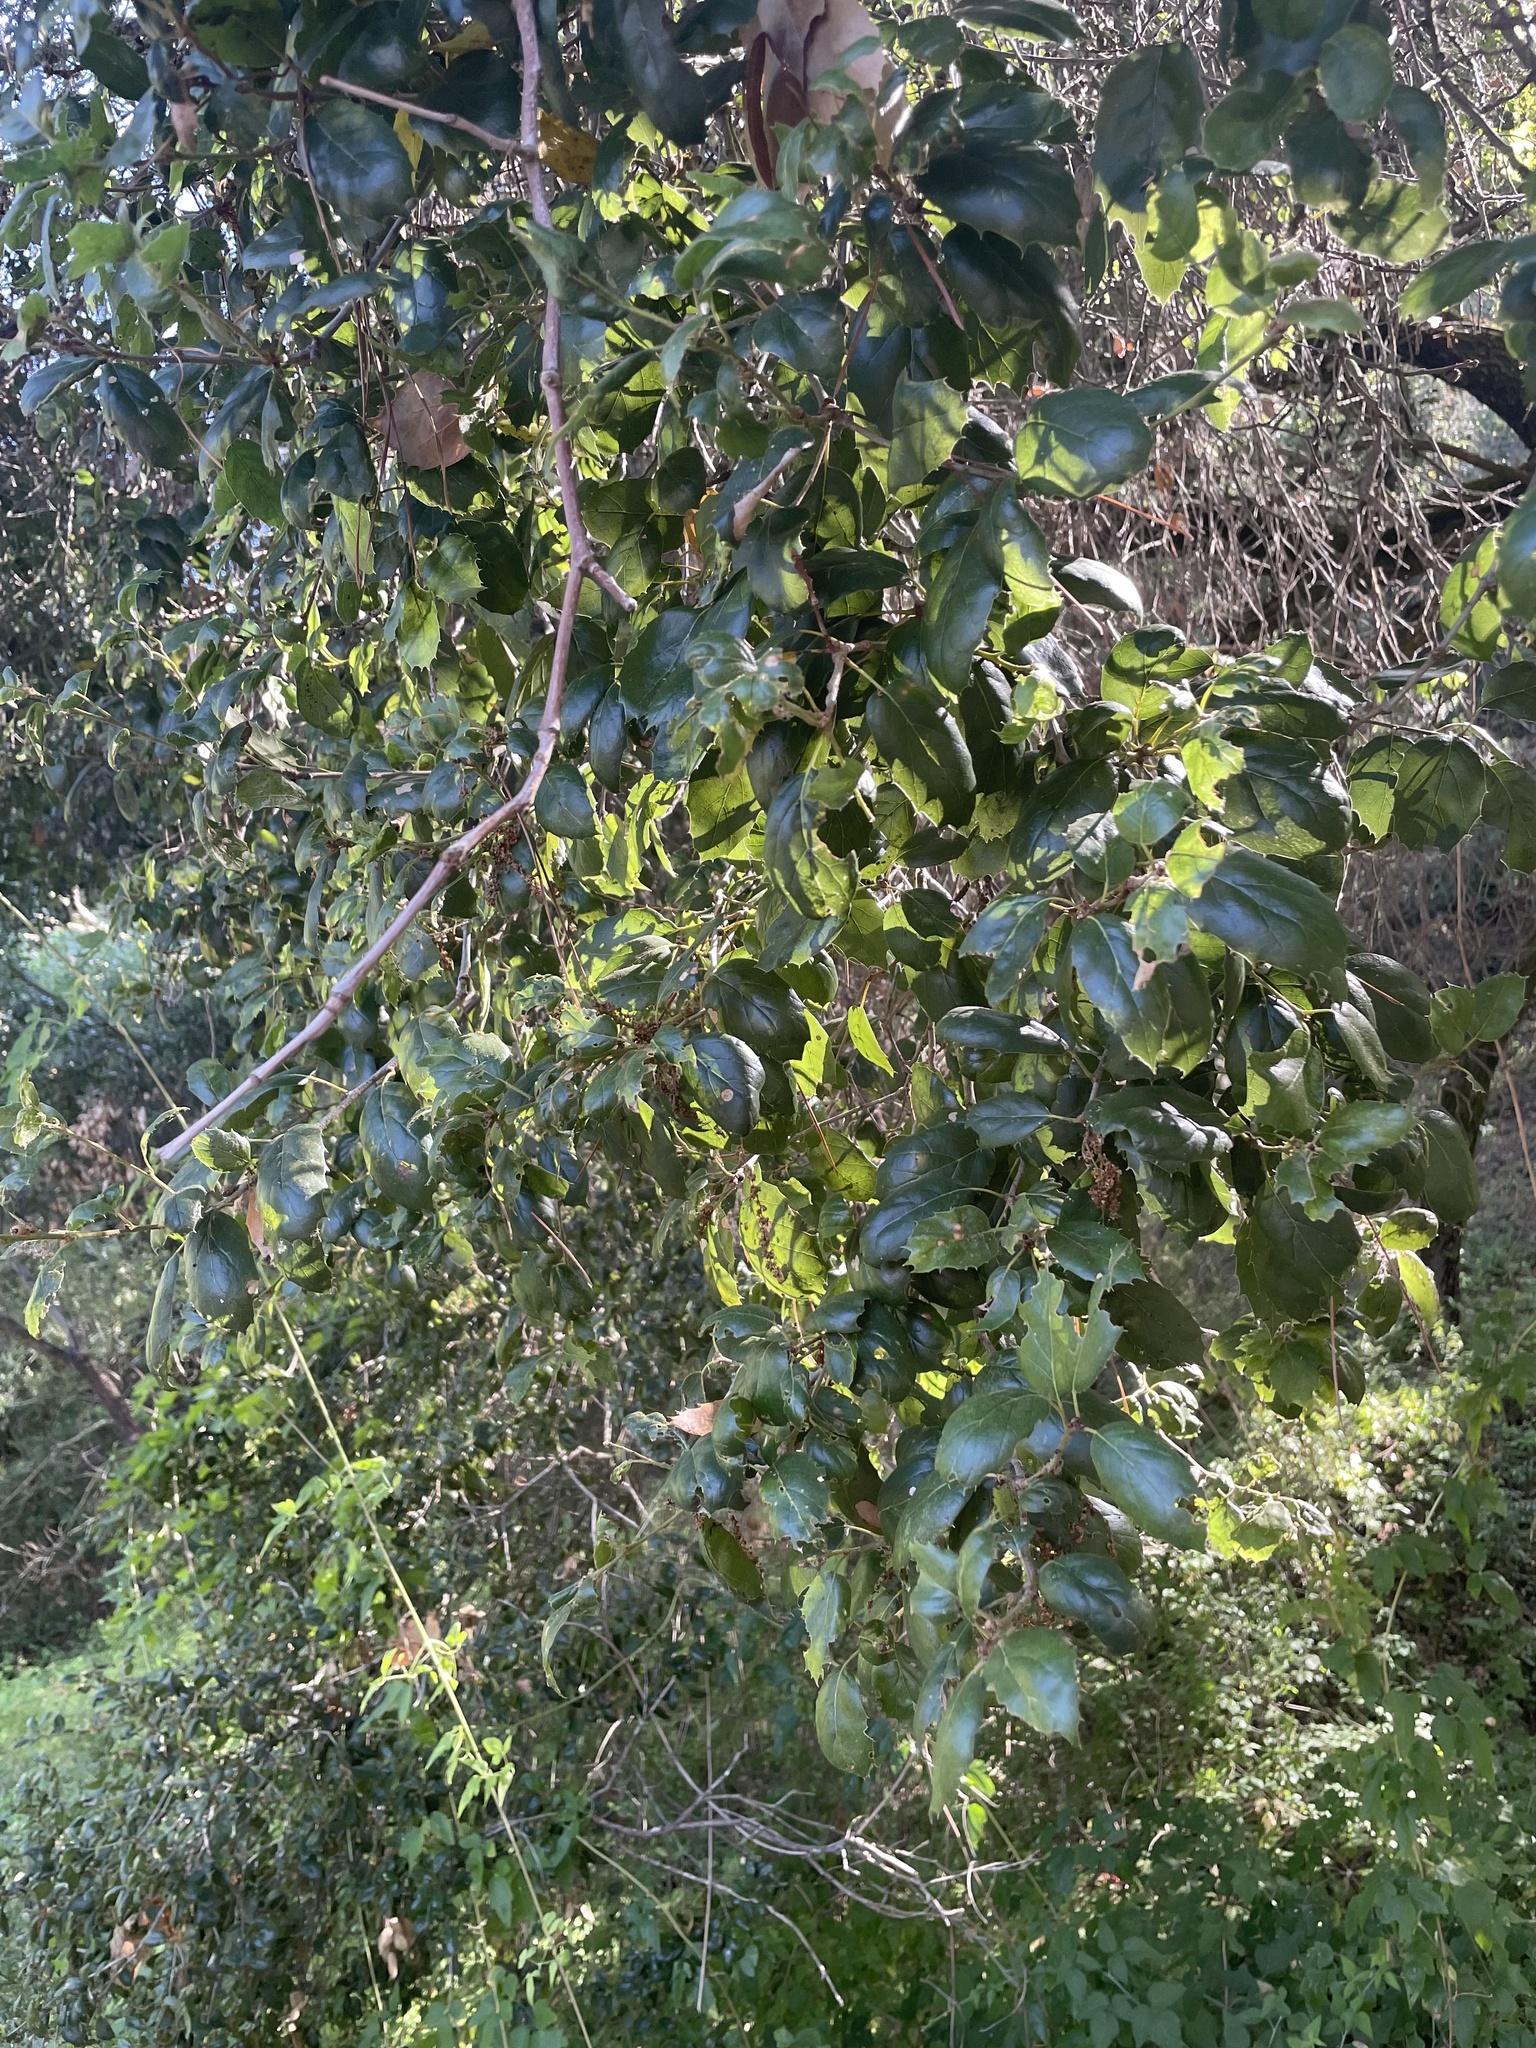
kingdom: Plantae
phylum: Tracheophyta
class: Magnoliopsida
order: Fagales
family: Fagaceae
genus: Quercus
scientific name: Quercus agrifolia
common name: California live oak
